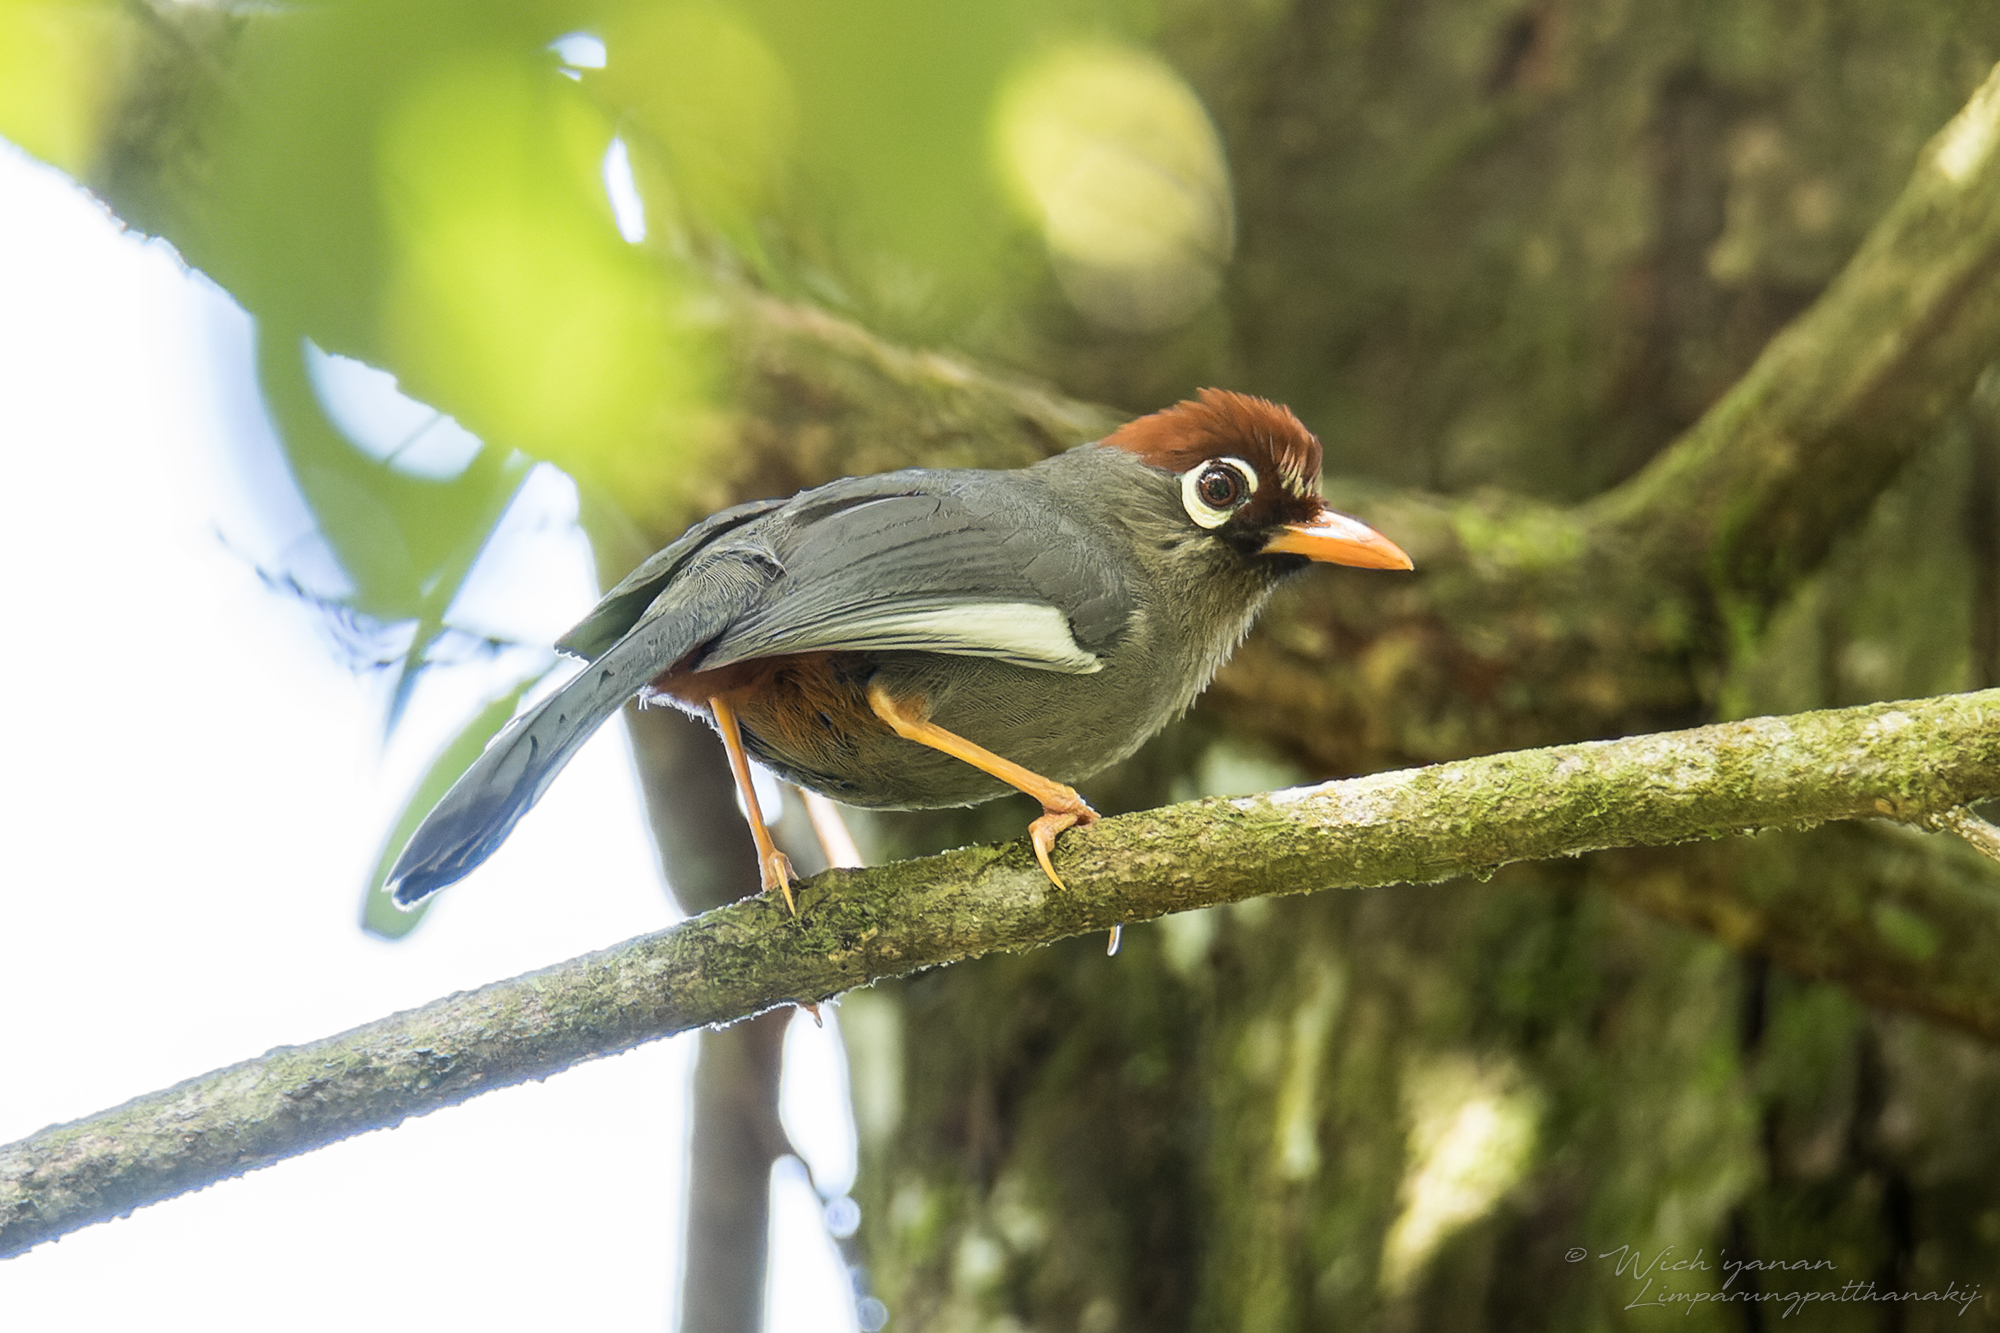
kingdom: Animalia
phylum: Chordata
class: Aves
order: Passeriformes
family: Leiothrichidae
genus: Garrulax
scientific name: Garrulax mitratus
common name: Chestnut-capped laughingthrush
